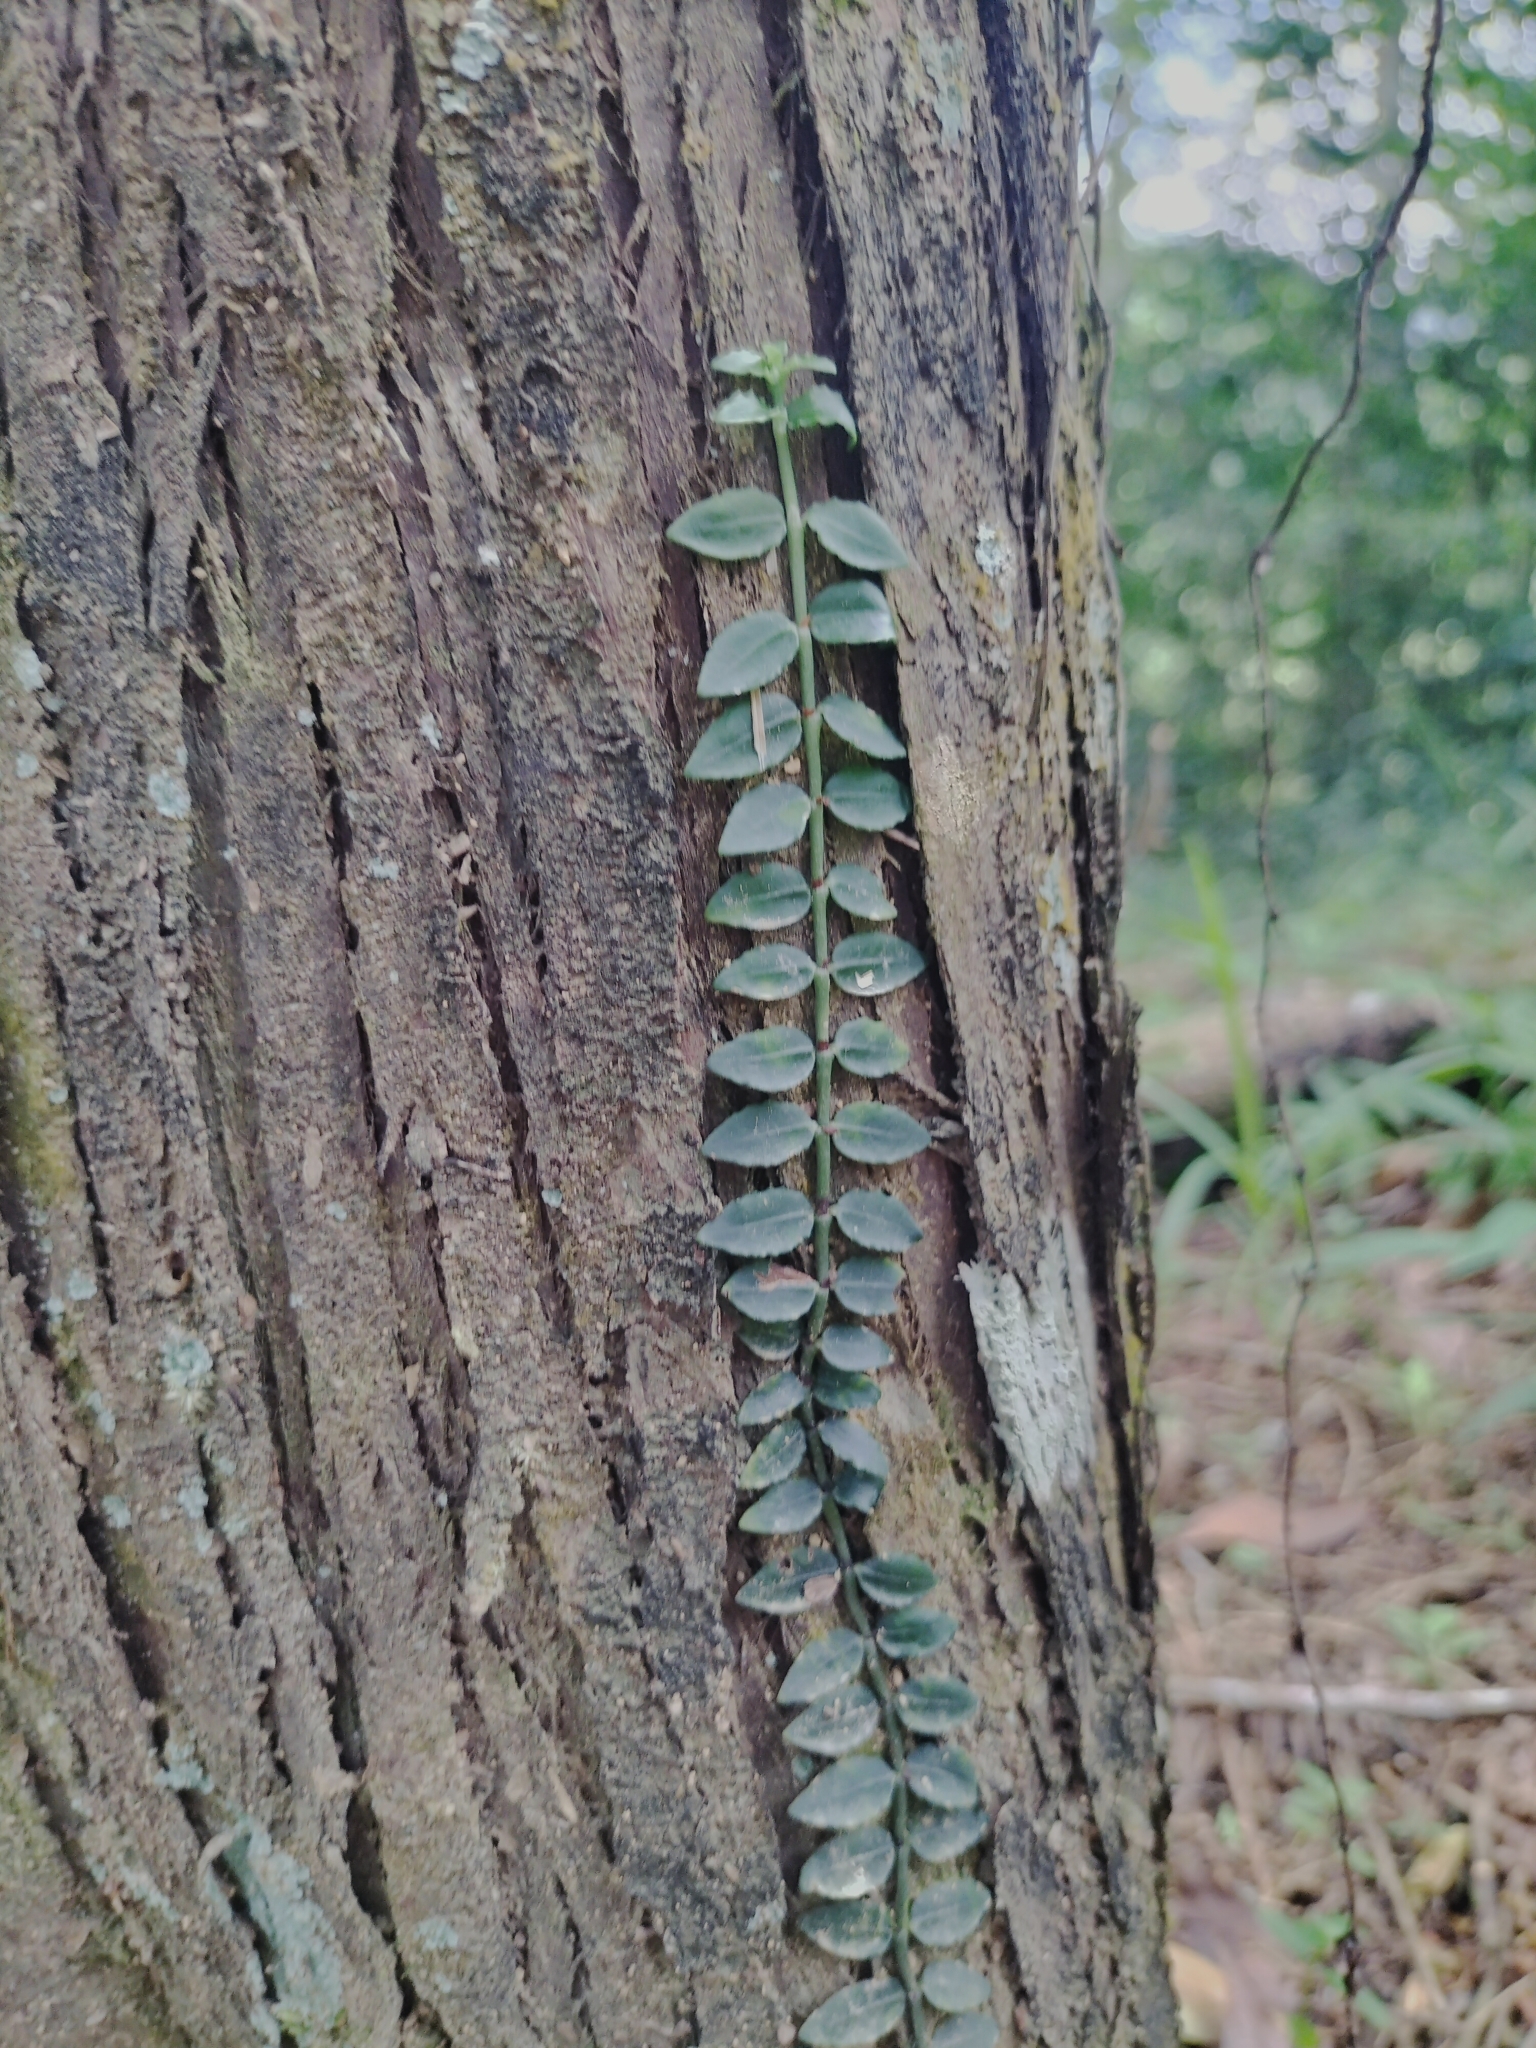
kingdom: Plantae
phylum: Tracheophyta
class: Magnoliopsida
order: Gentianales
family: Rubiaceae
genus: Psychotria
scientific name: Psychotria serpens
